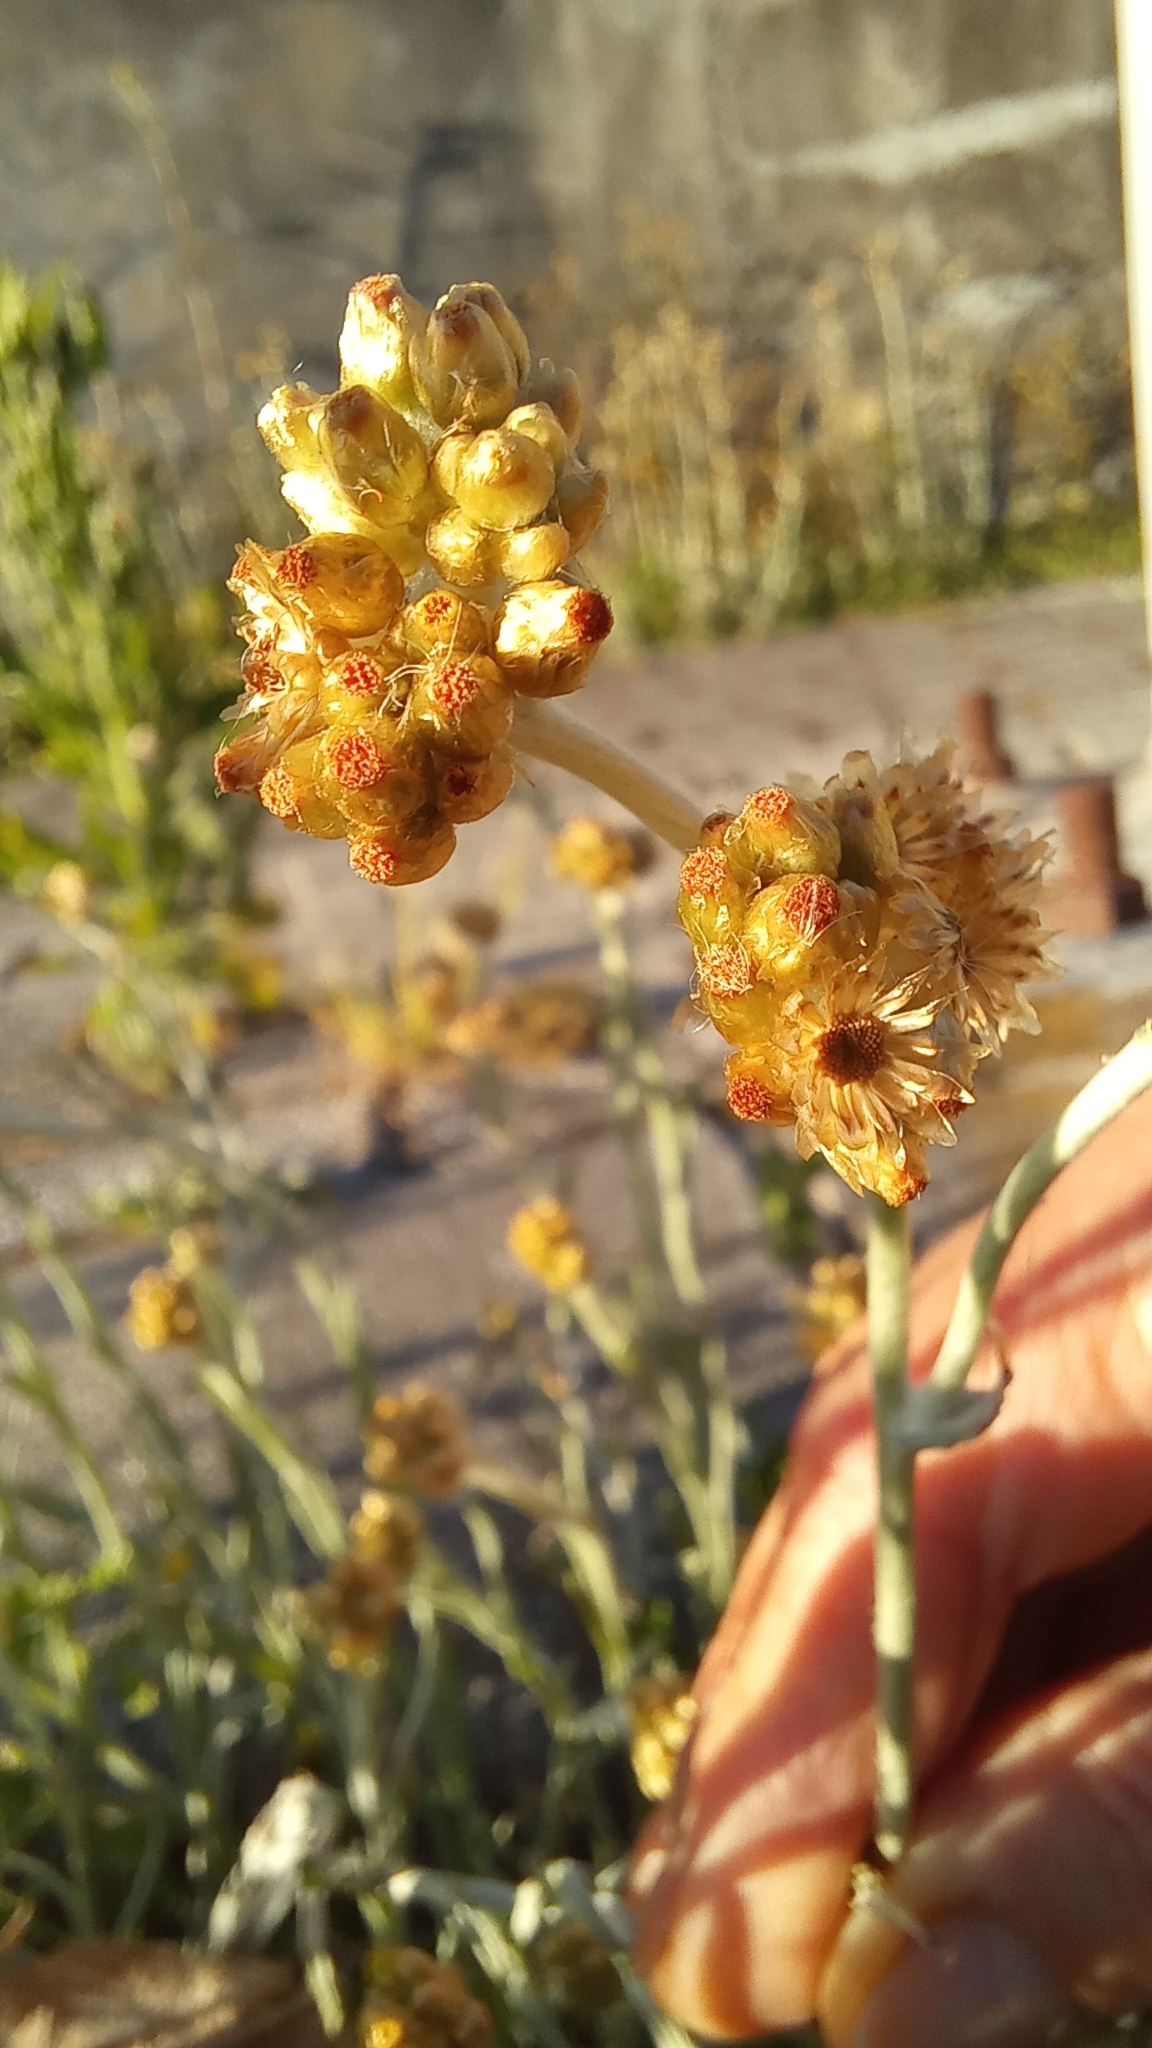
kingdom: Plantae
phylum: Tracheophyta
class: Magnoliopsida
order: Asterales
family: Asteraceae
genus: Helichrysum
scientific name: Helichrysum luteoalbum
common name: Daisy
